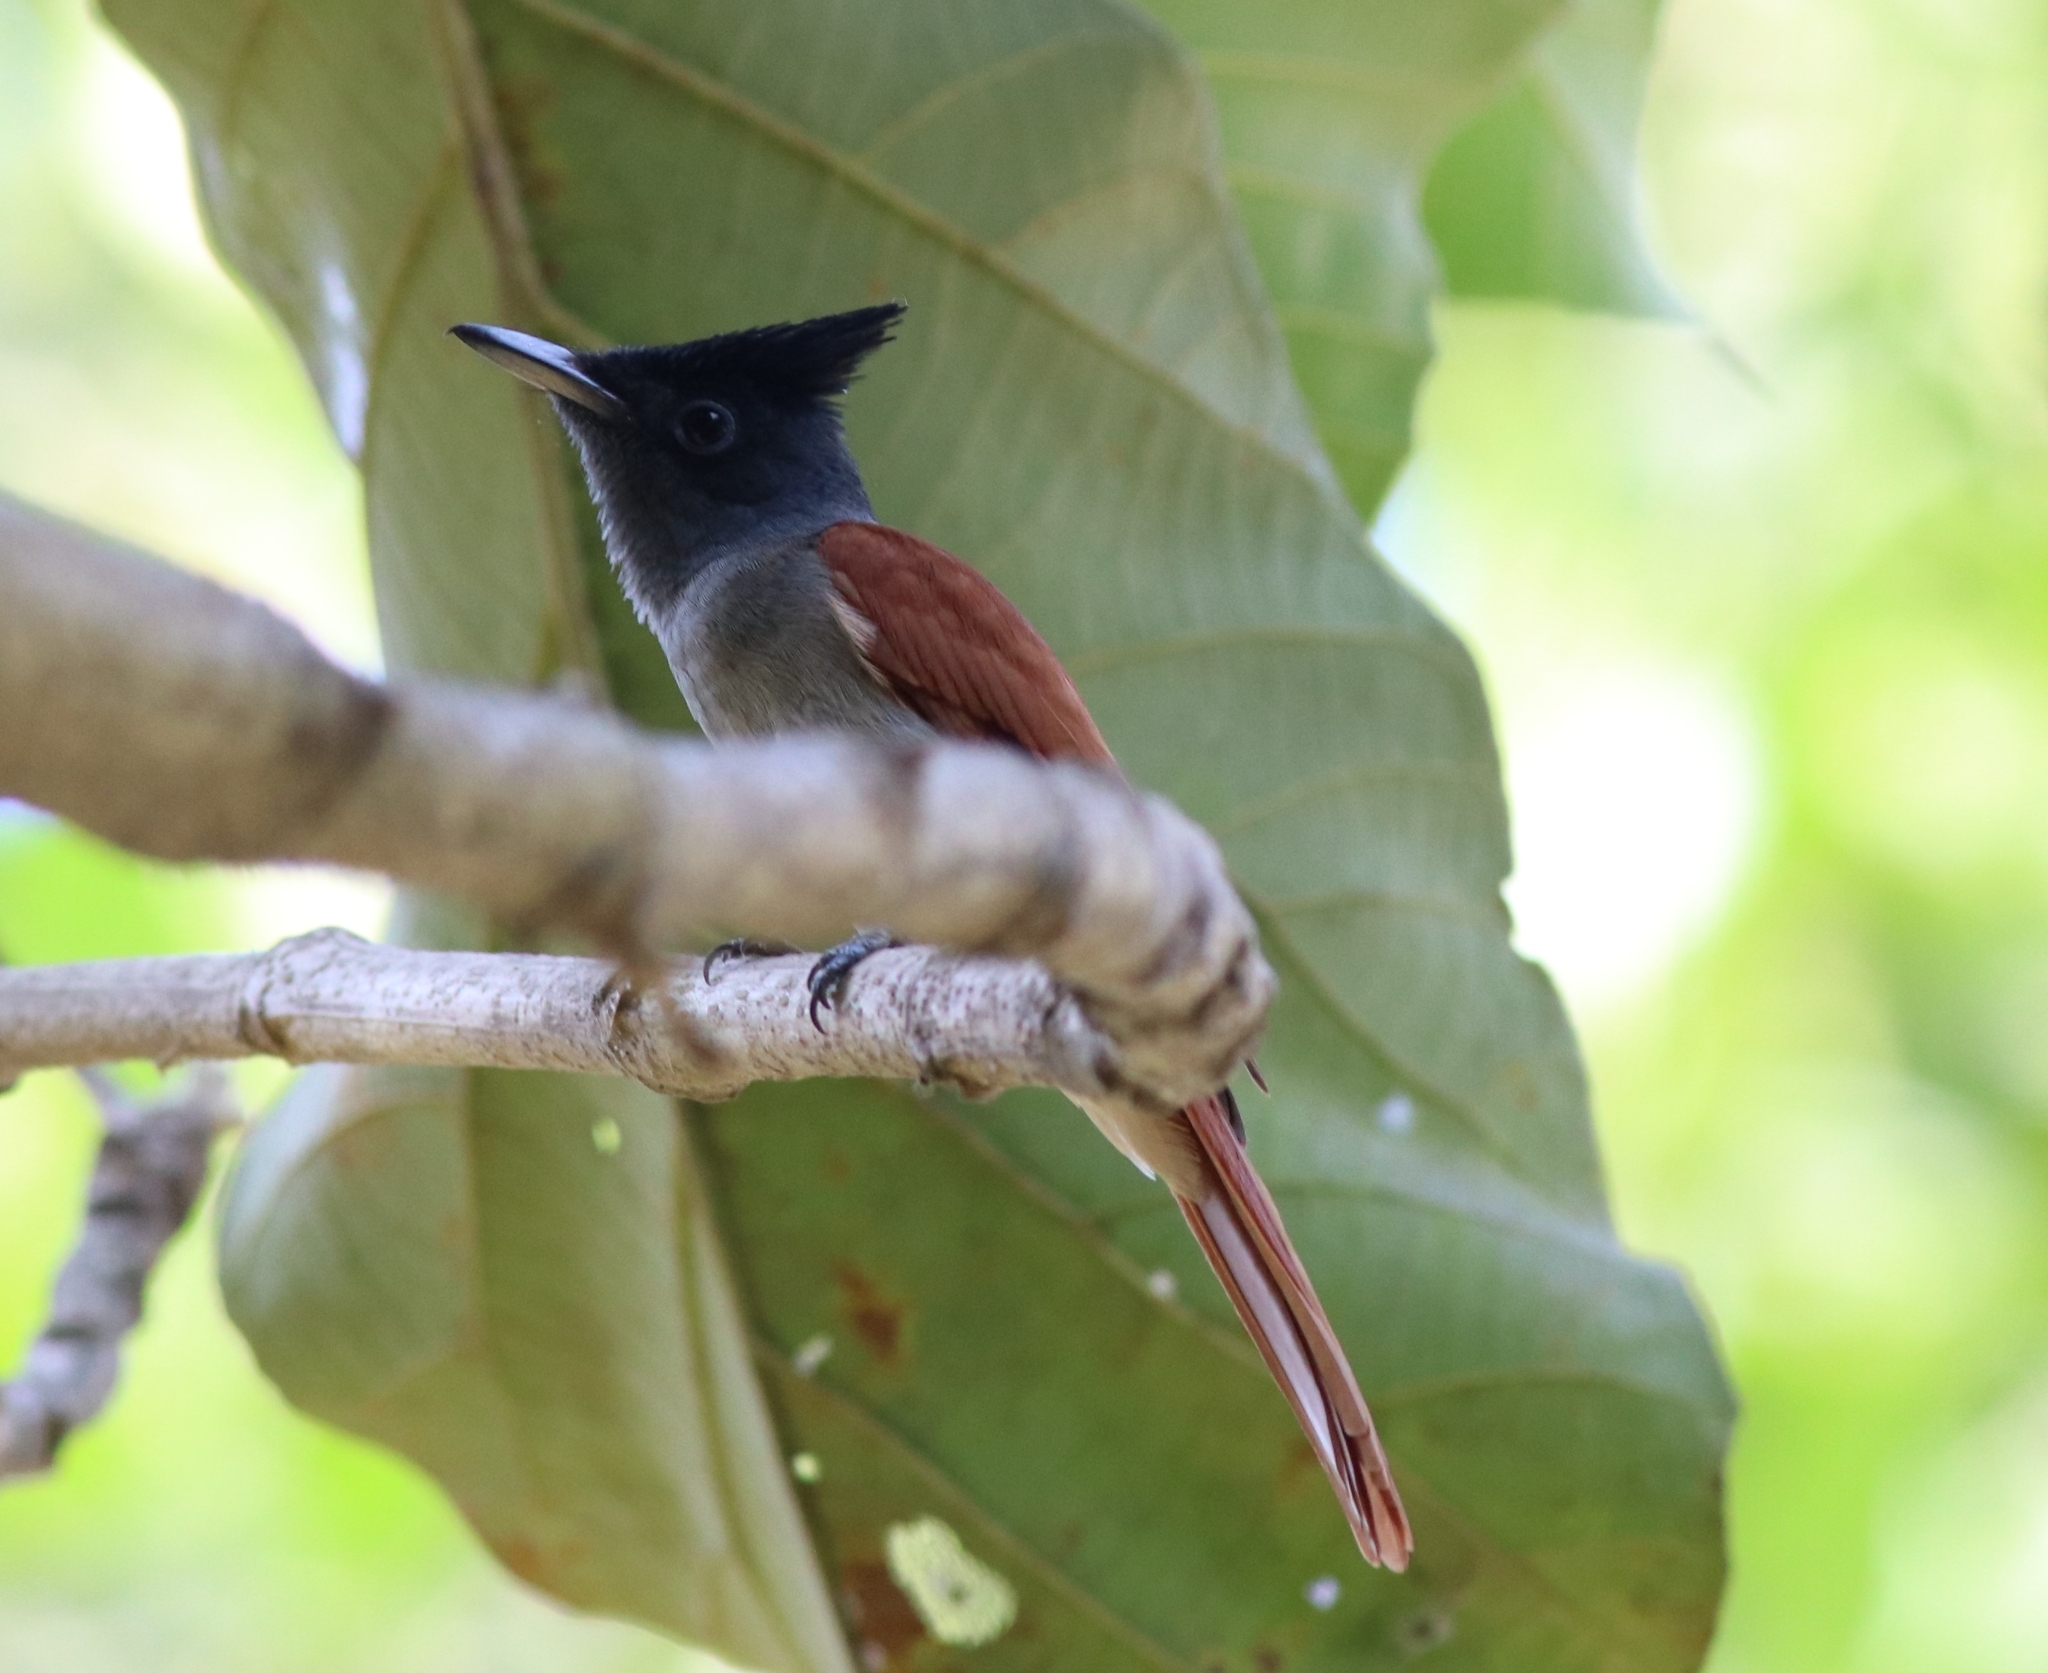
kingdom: Animalia
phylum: Chordata
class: Aves
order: Passeriformes
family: Monarchidae
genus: Terpsiphone
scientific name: Terpsiphone paradisi
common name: Indian paradise flycatcher
